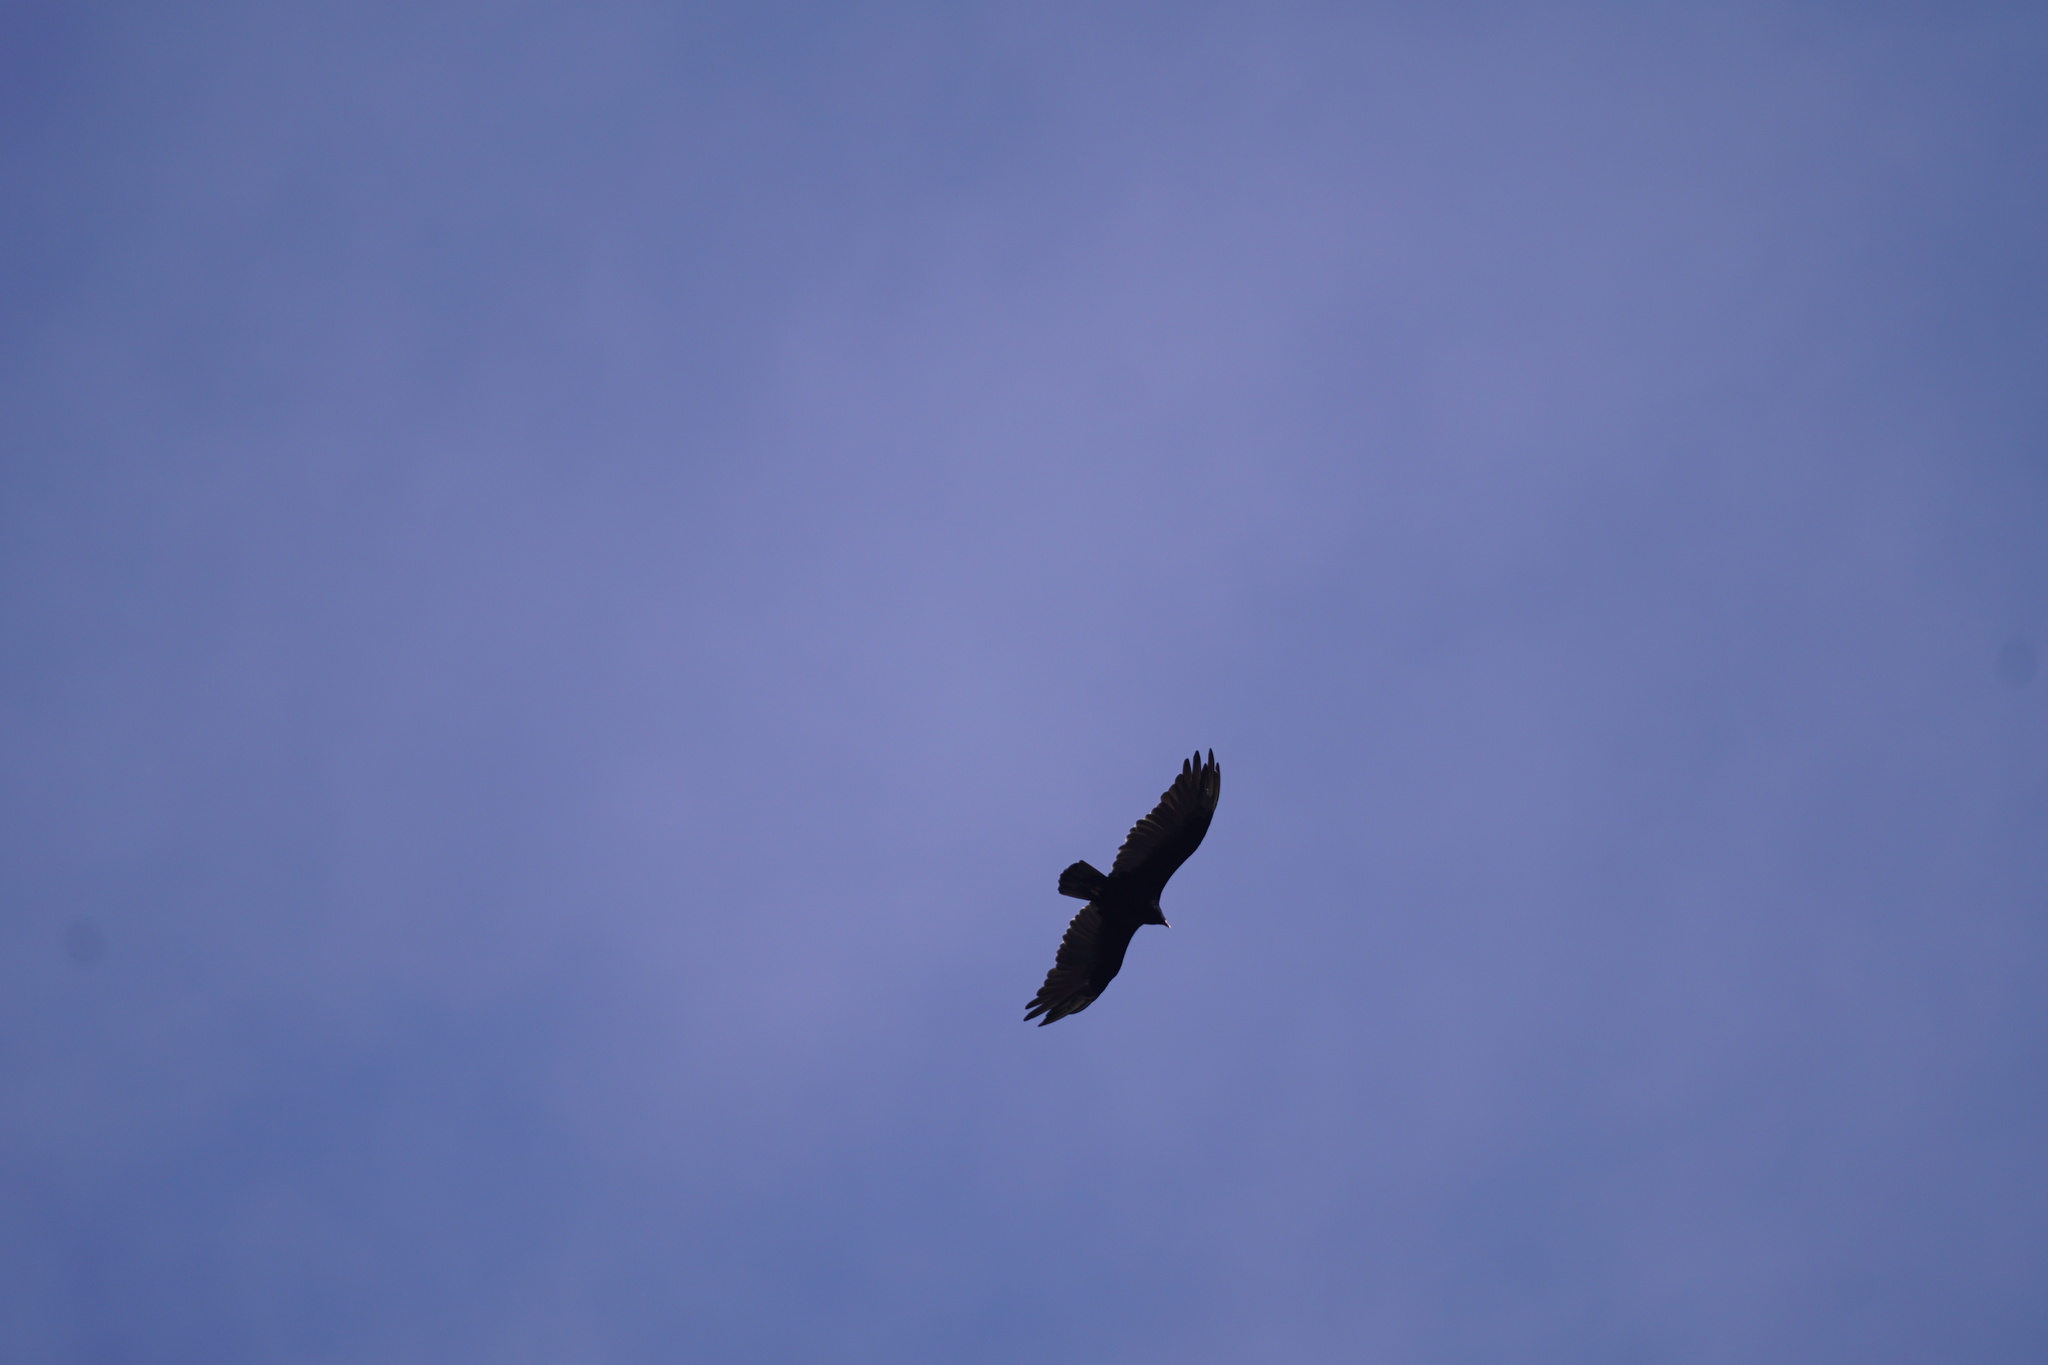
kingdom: Animalia
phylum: Chordata
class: Aves
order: Accipitriformes
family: Cathartidae
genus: Cathartes
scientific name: Cathartes aura
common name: Turkey vulture
